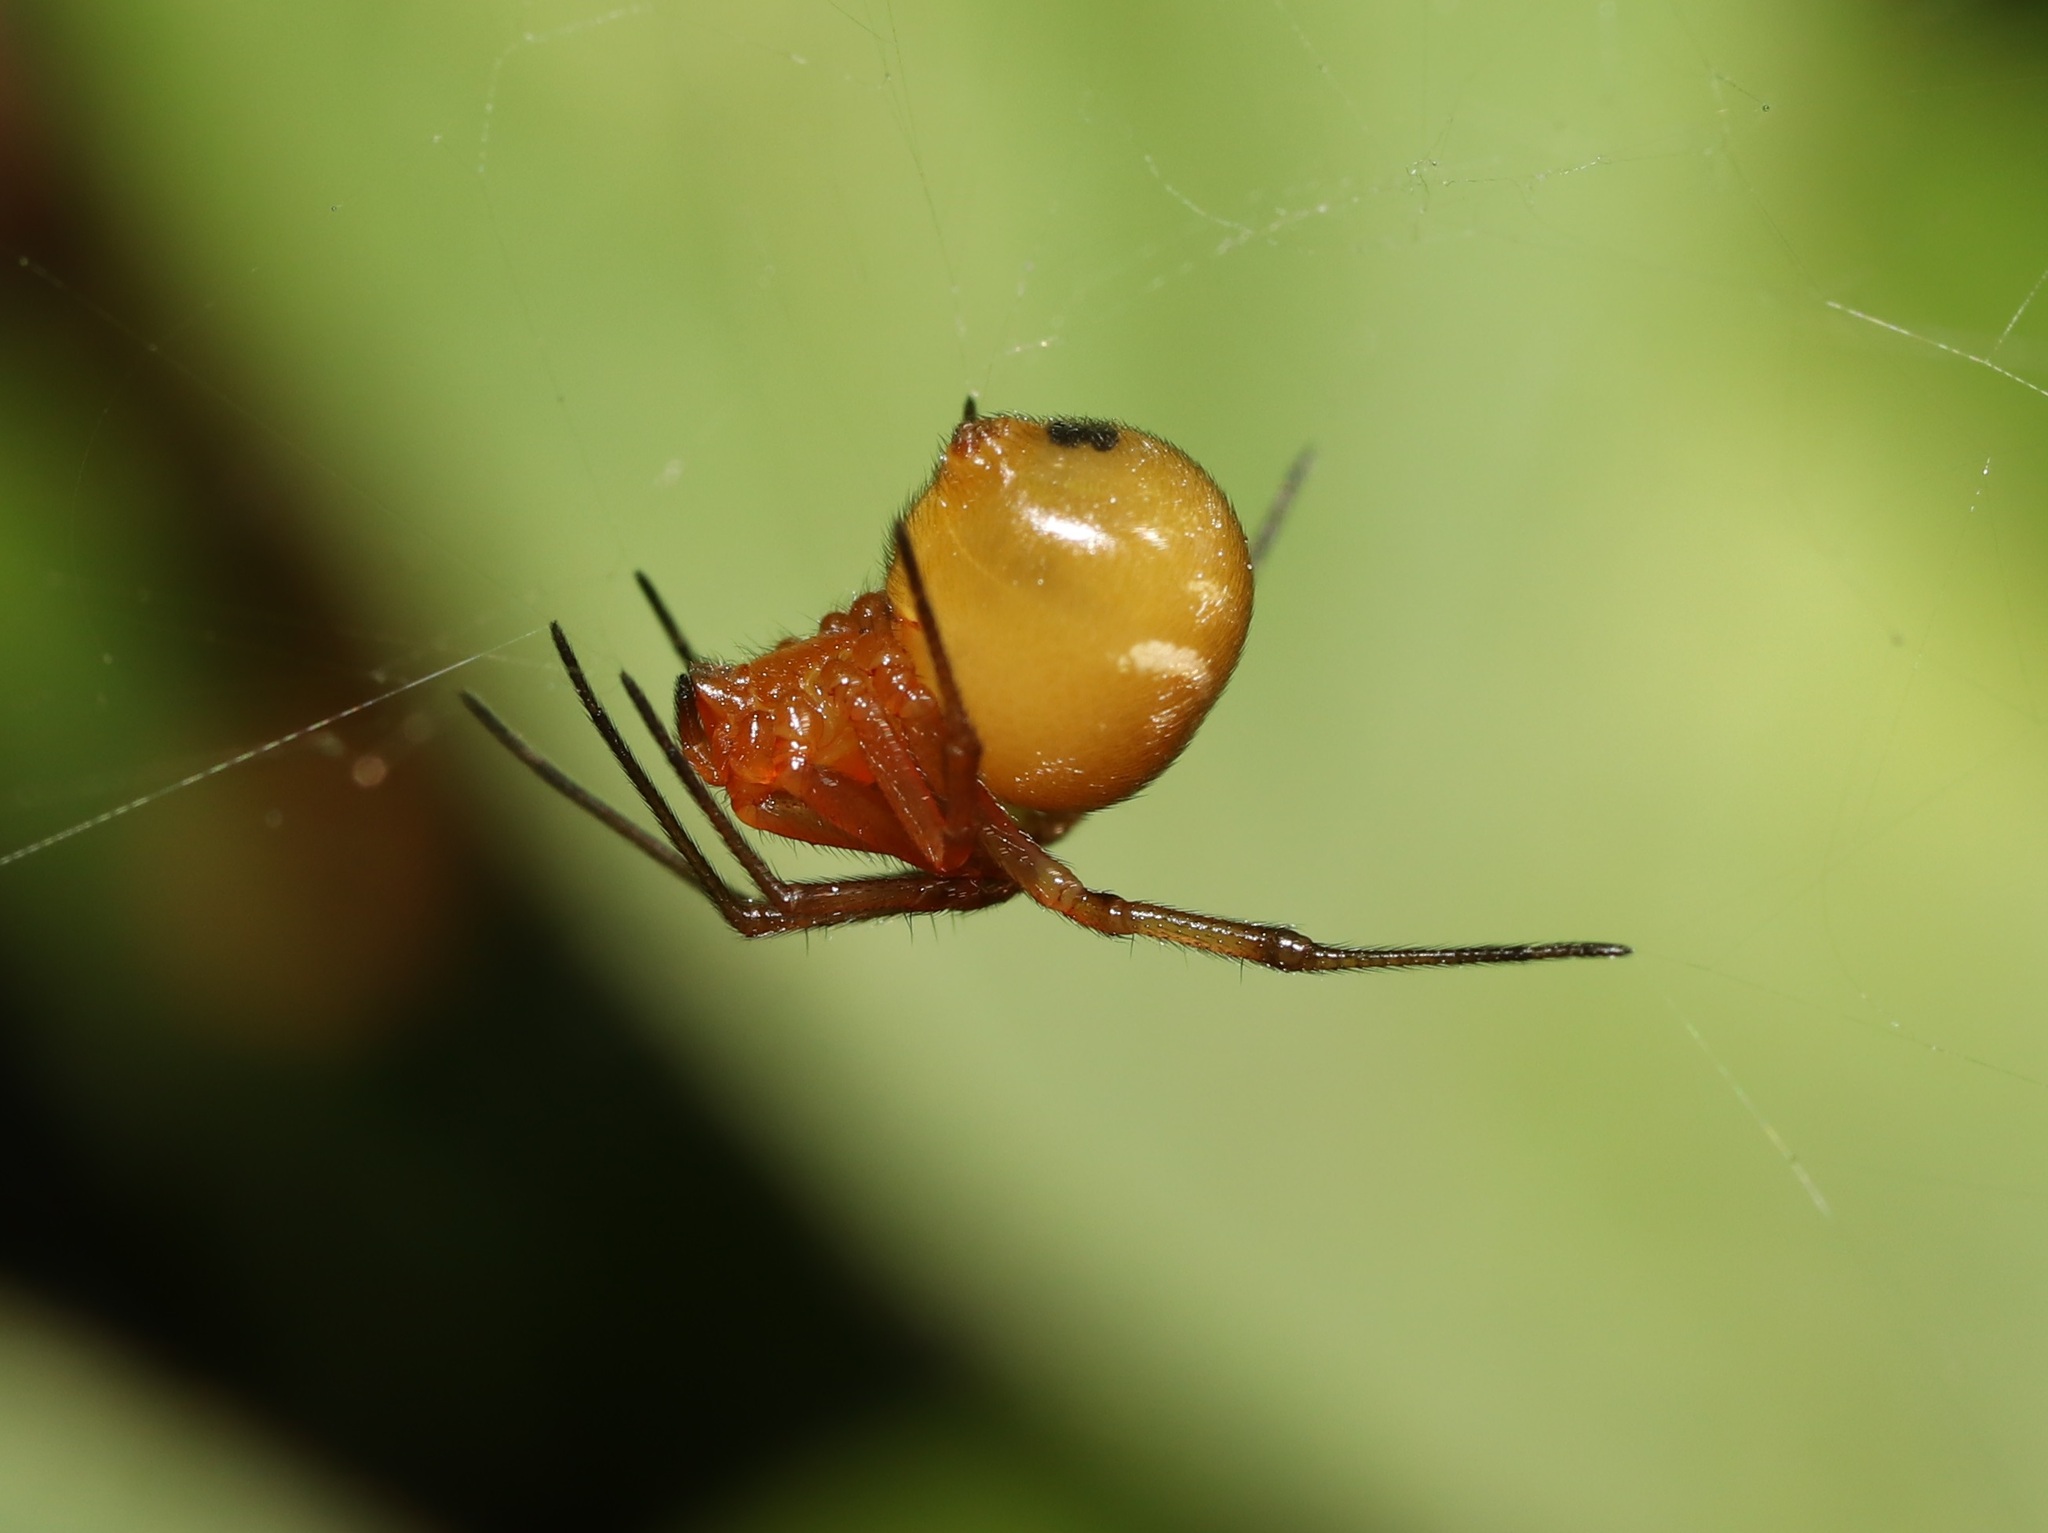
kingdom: Animalia
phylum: Arthropoda
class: Arachnida
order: Araneae
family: Theridiidae
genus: Nihonhimea
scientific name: Nihonhimea japonica
